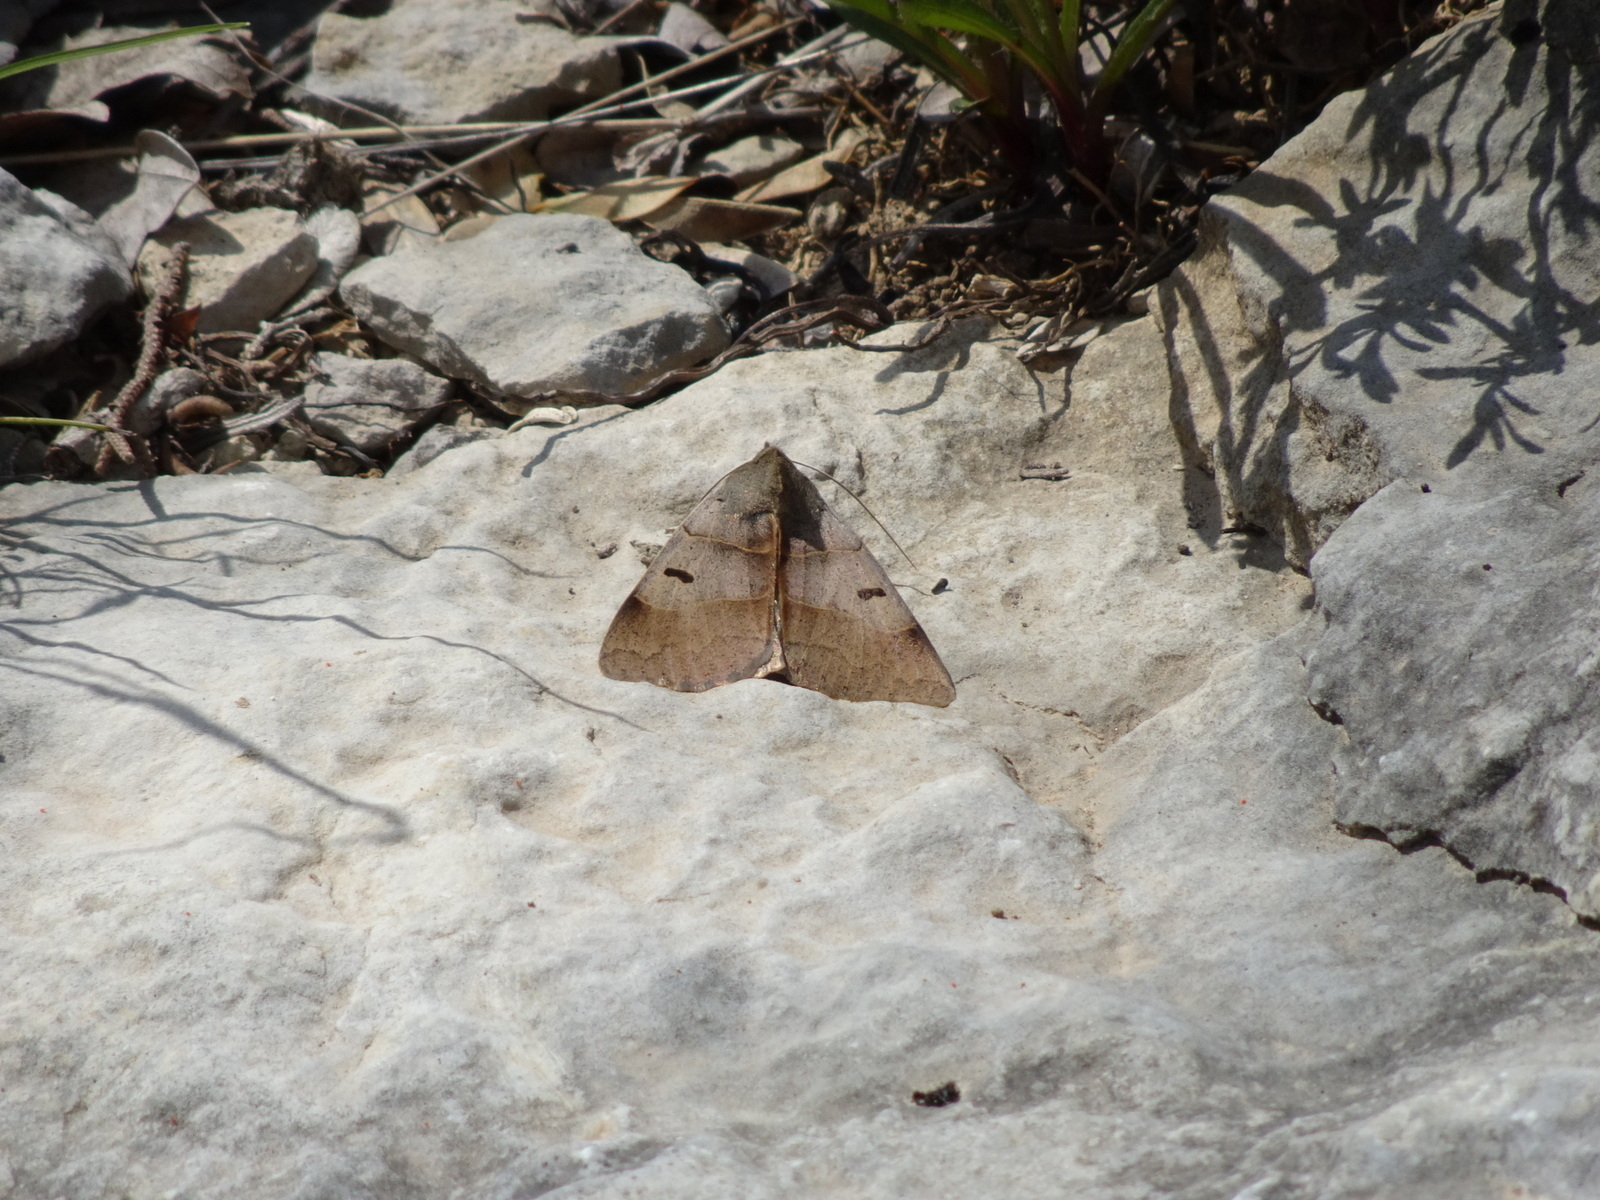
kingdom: Animalia
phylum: Arthropoda
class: Insecta
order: Lepidoptera
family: Erebidae
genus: Minucia
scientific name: Minucia lunaris
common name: Lunar double-stripe
